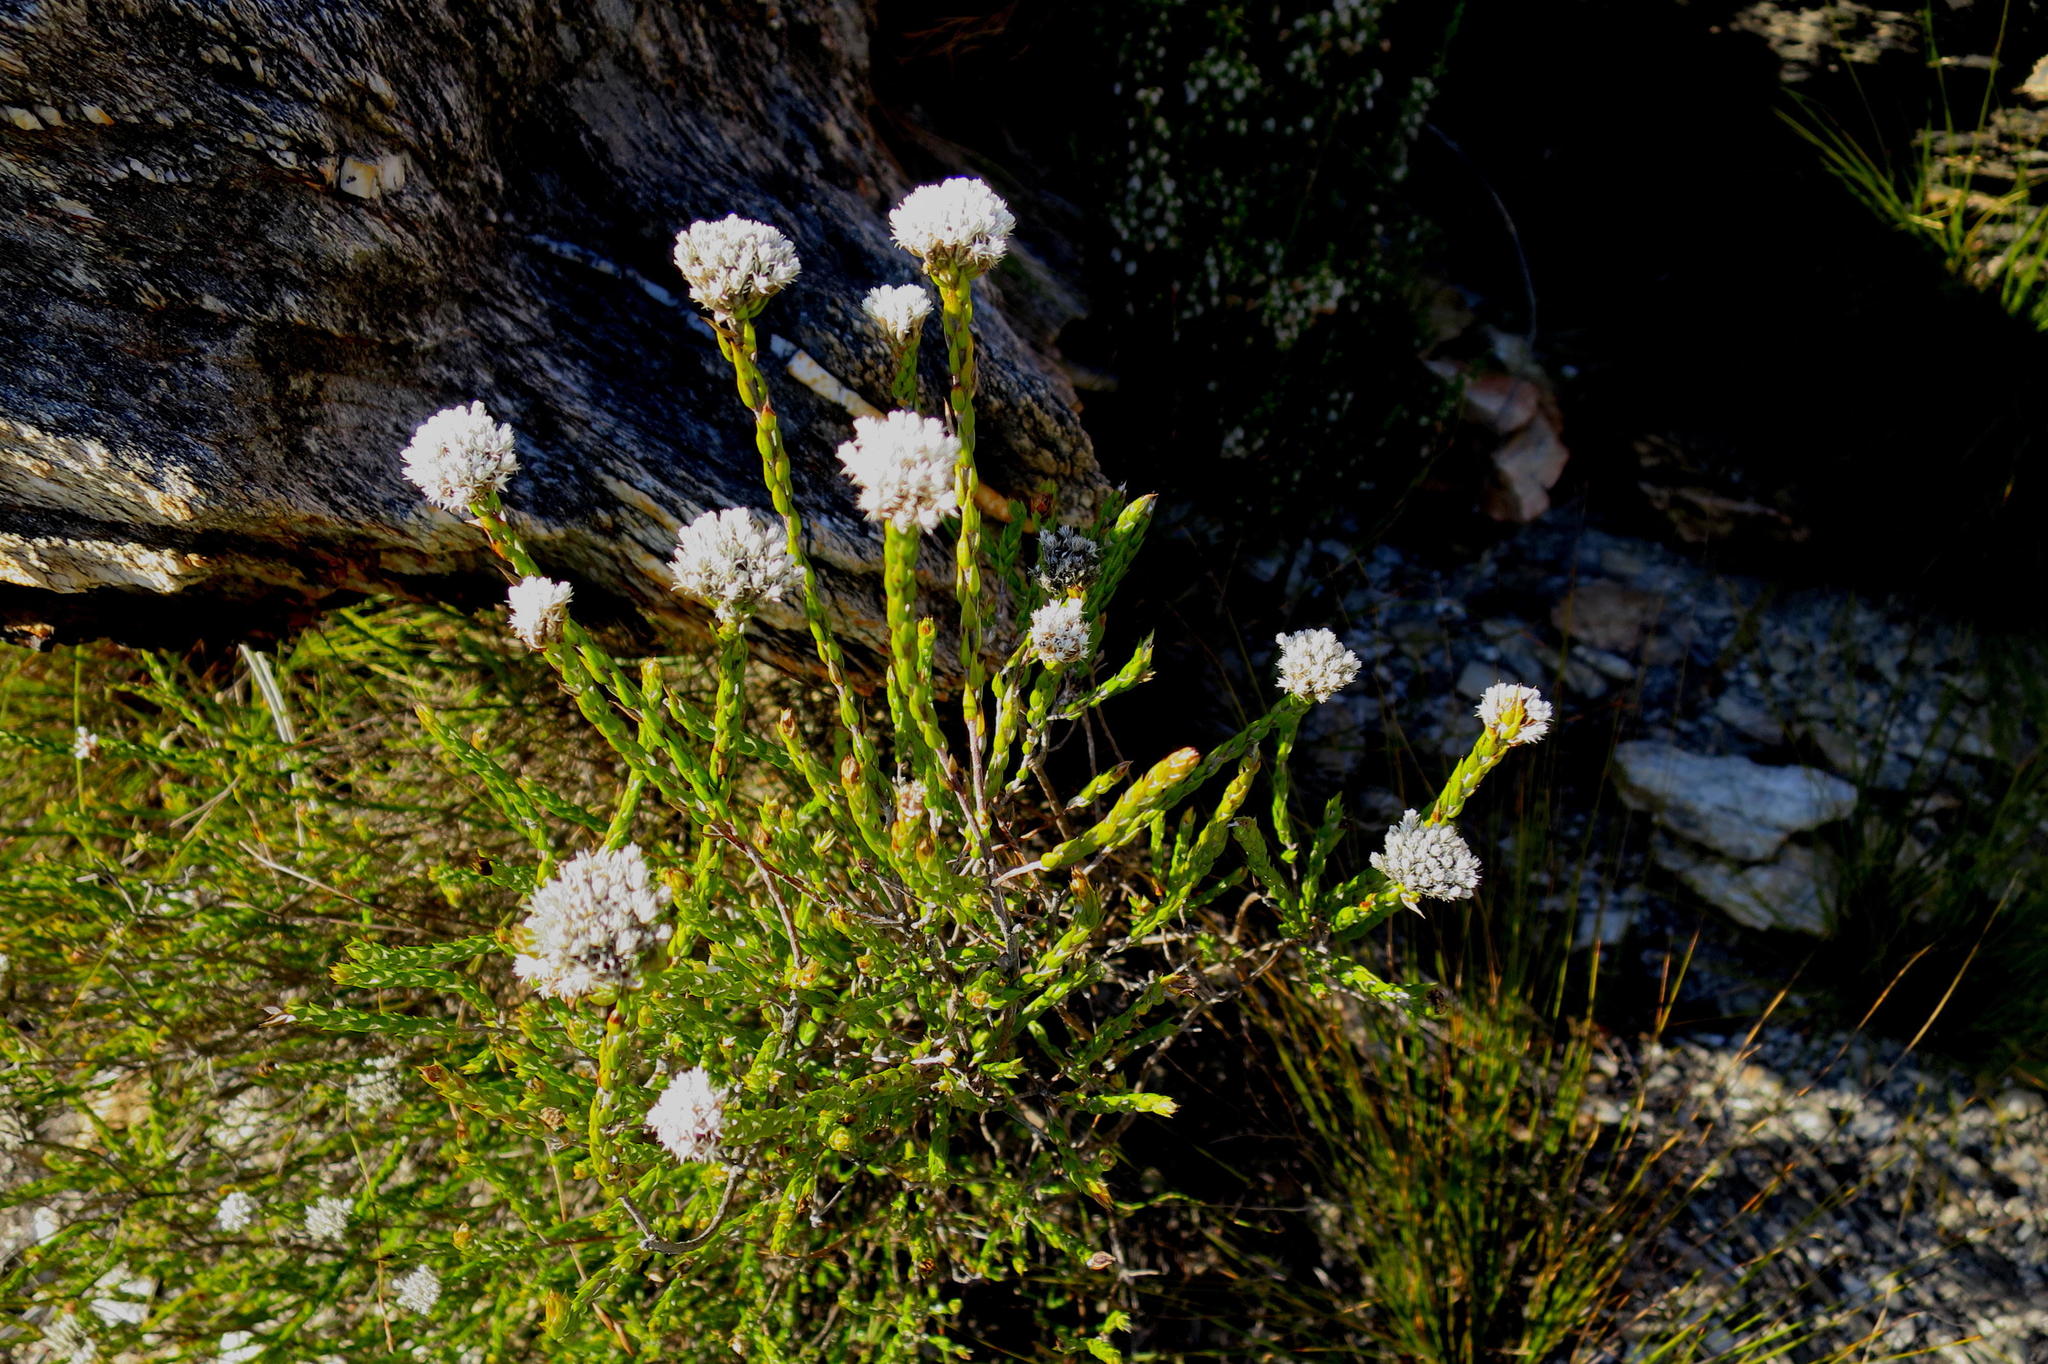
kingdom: Plantae
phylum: Tracheophyta
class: Magnoliopsida
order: Asterales
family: Asteraceae
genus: Metalasia
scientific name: Metalasia pulcherrima
